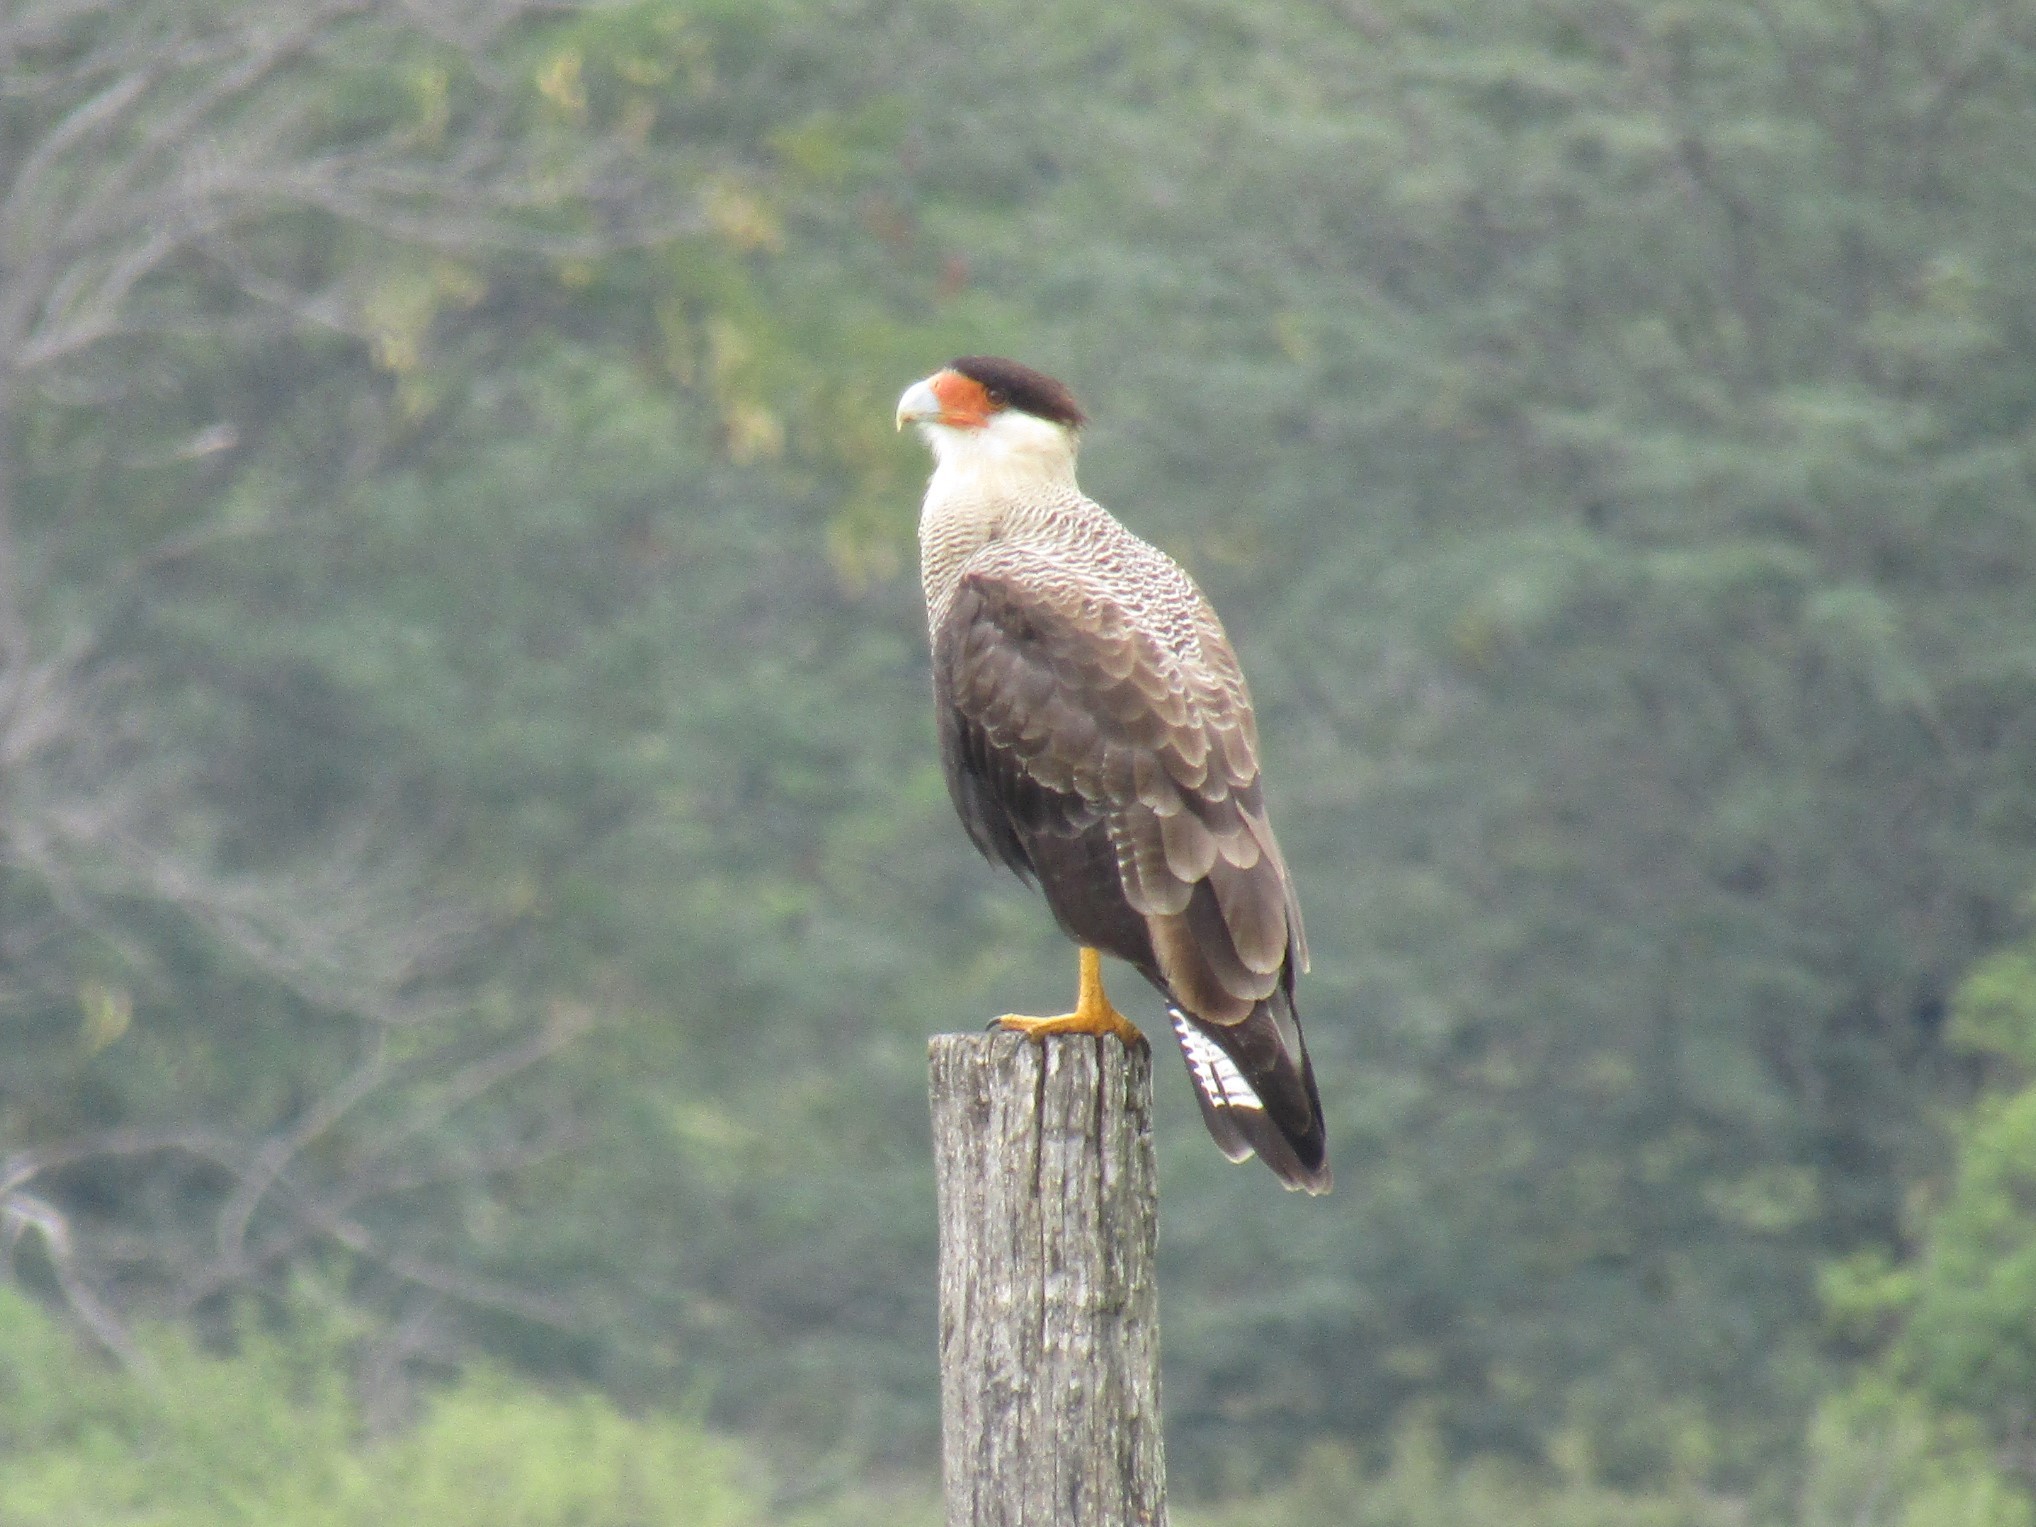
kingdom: Animalia
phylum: Chordata
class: Aves
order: Falconiformes
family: Falconidae
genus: Caracara
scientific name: Caracara plancus
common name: Southern caracara
